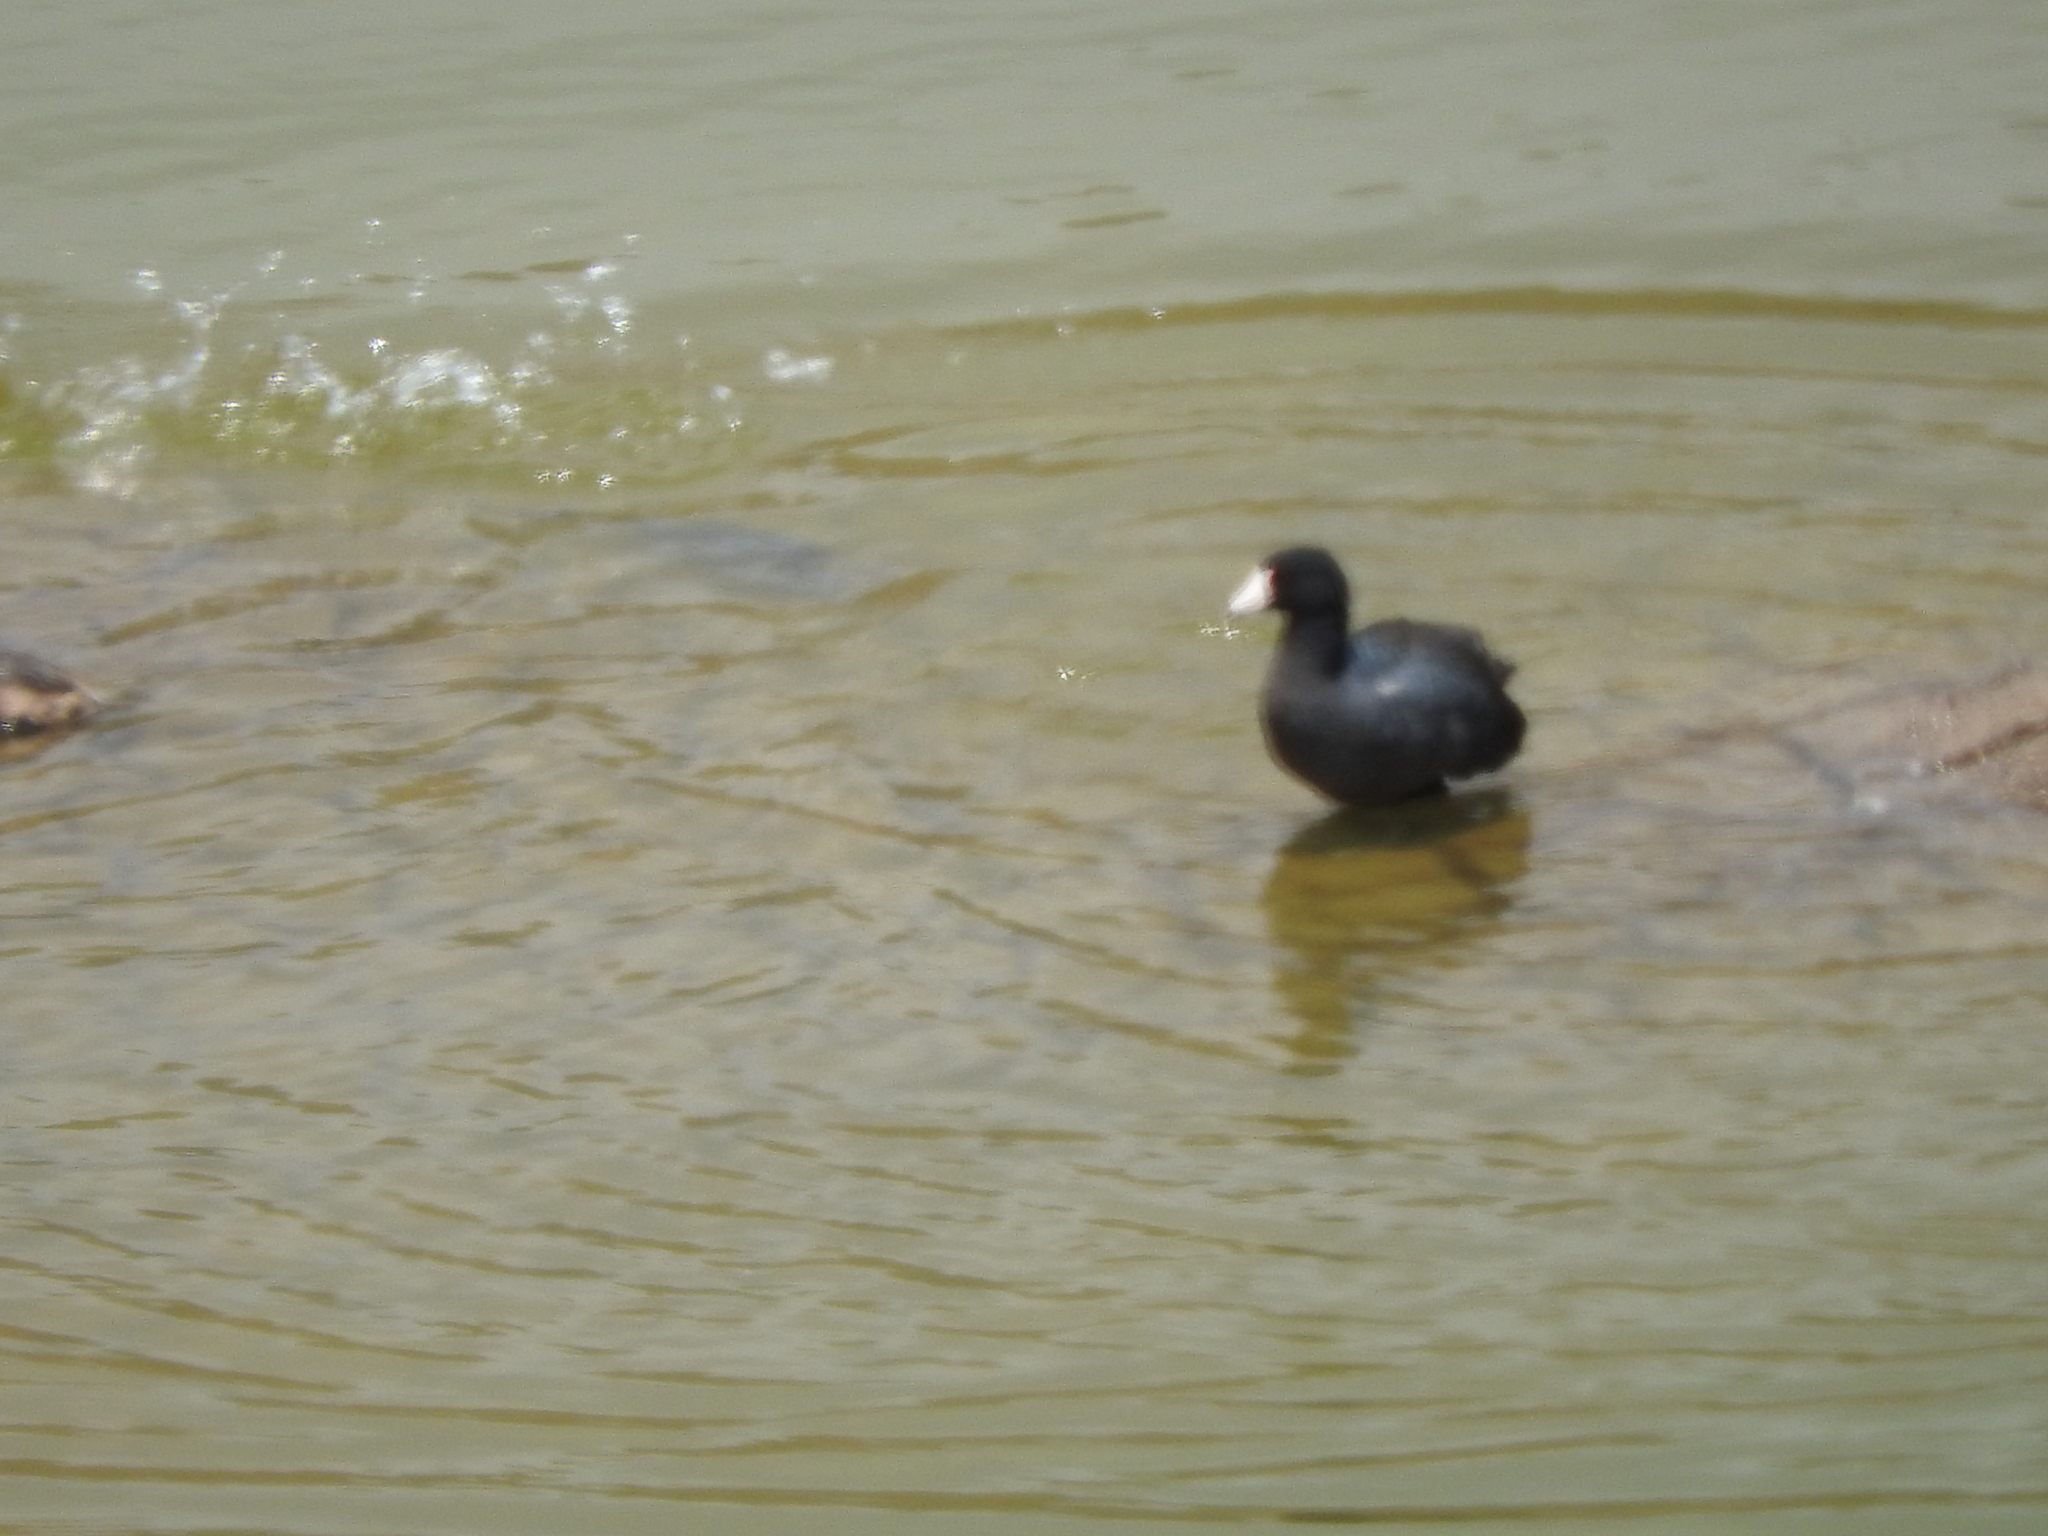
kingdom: Animalia
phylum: Chordata
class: Aves
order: Gruiformes
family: Rallidae
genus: Fulica
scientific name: Fulica americana
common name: American coot
